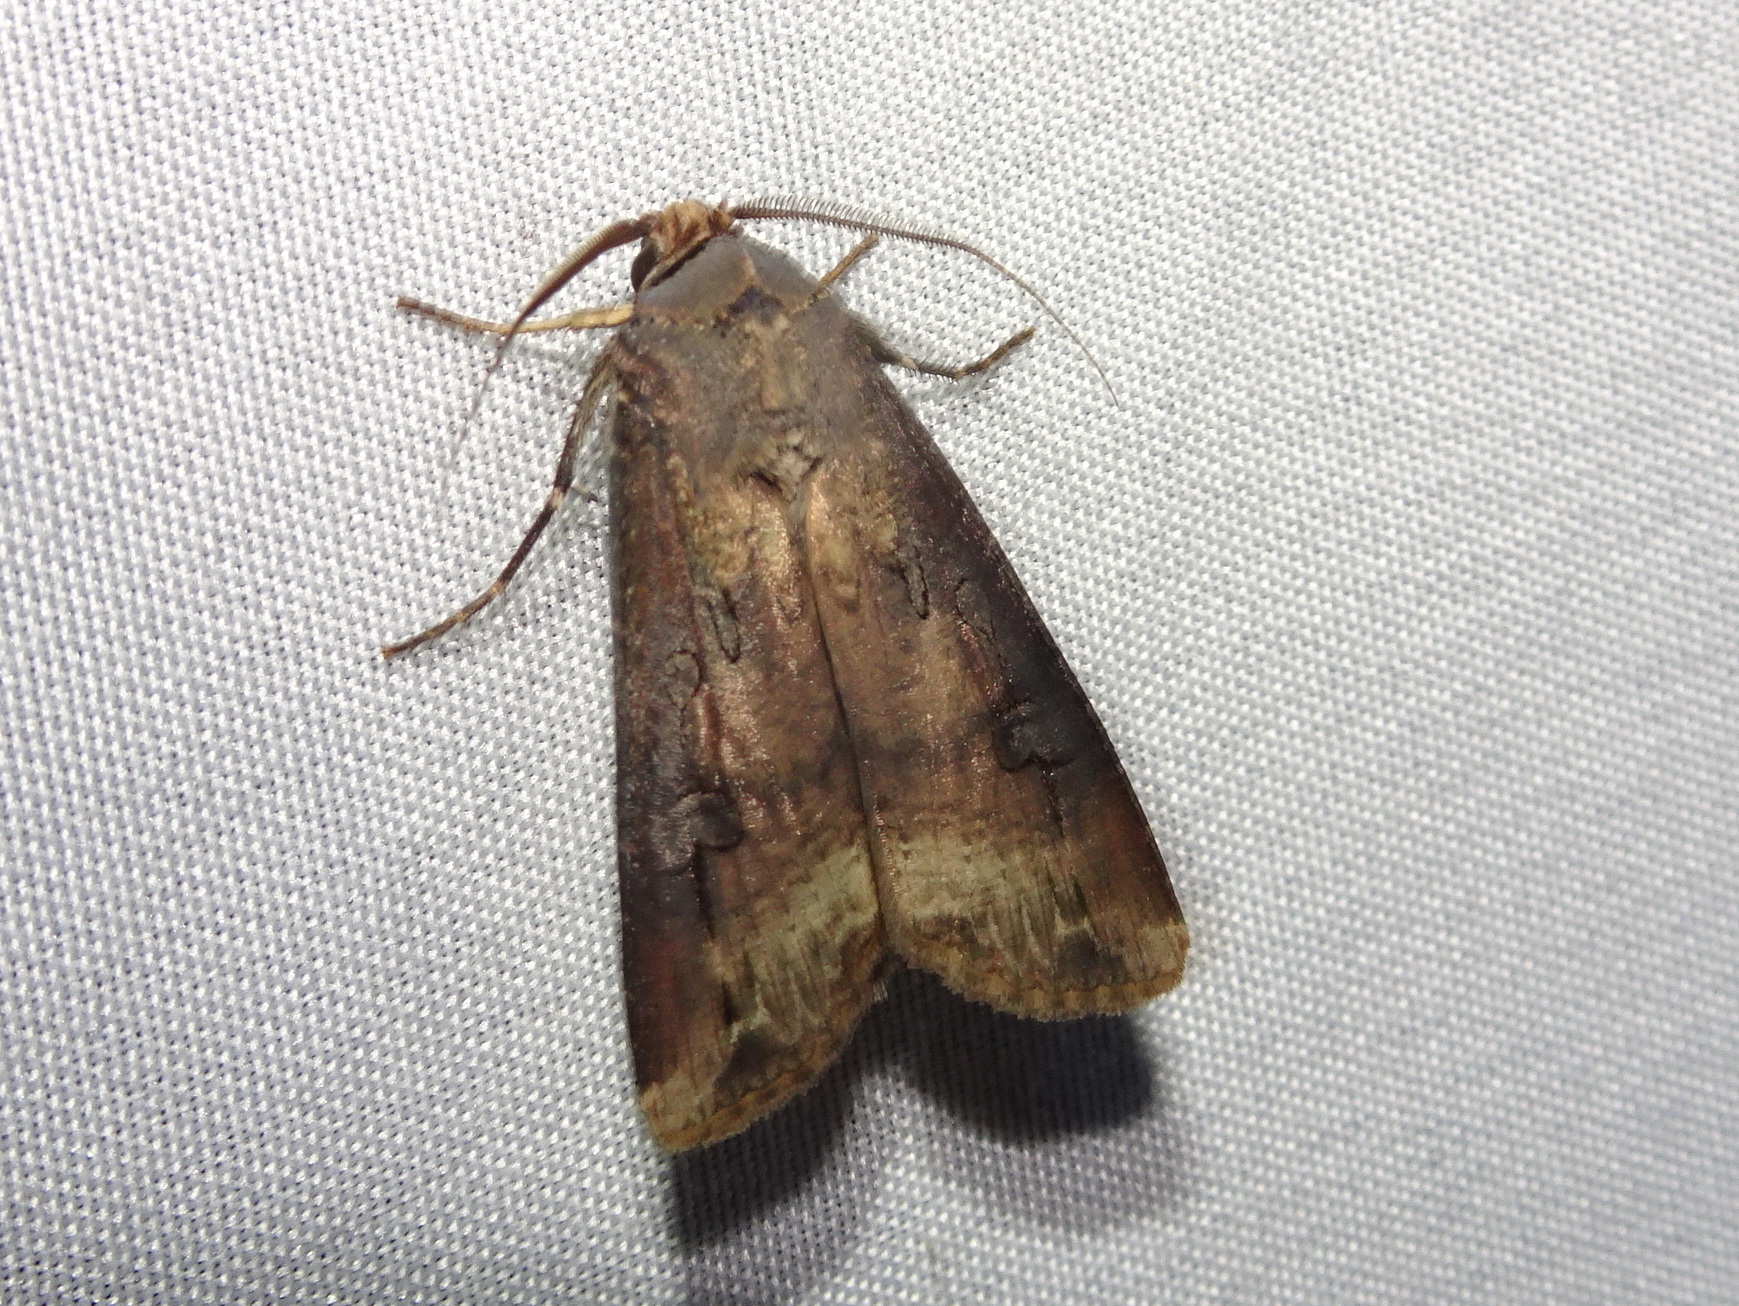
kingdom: Animalia
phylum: Arthropoda
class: Insecta
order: Lepidoptera
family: Noctuidae
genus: Agrotis
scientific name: Agrotis ipsilon
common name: Dark sword-grass
